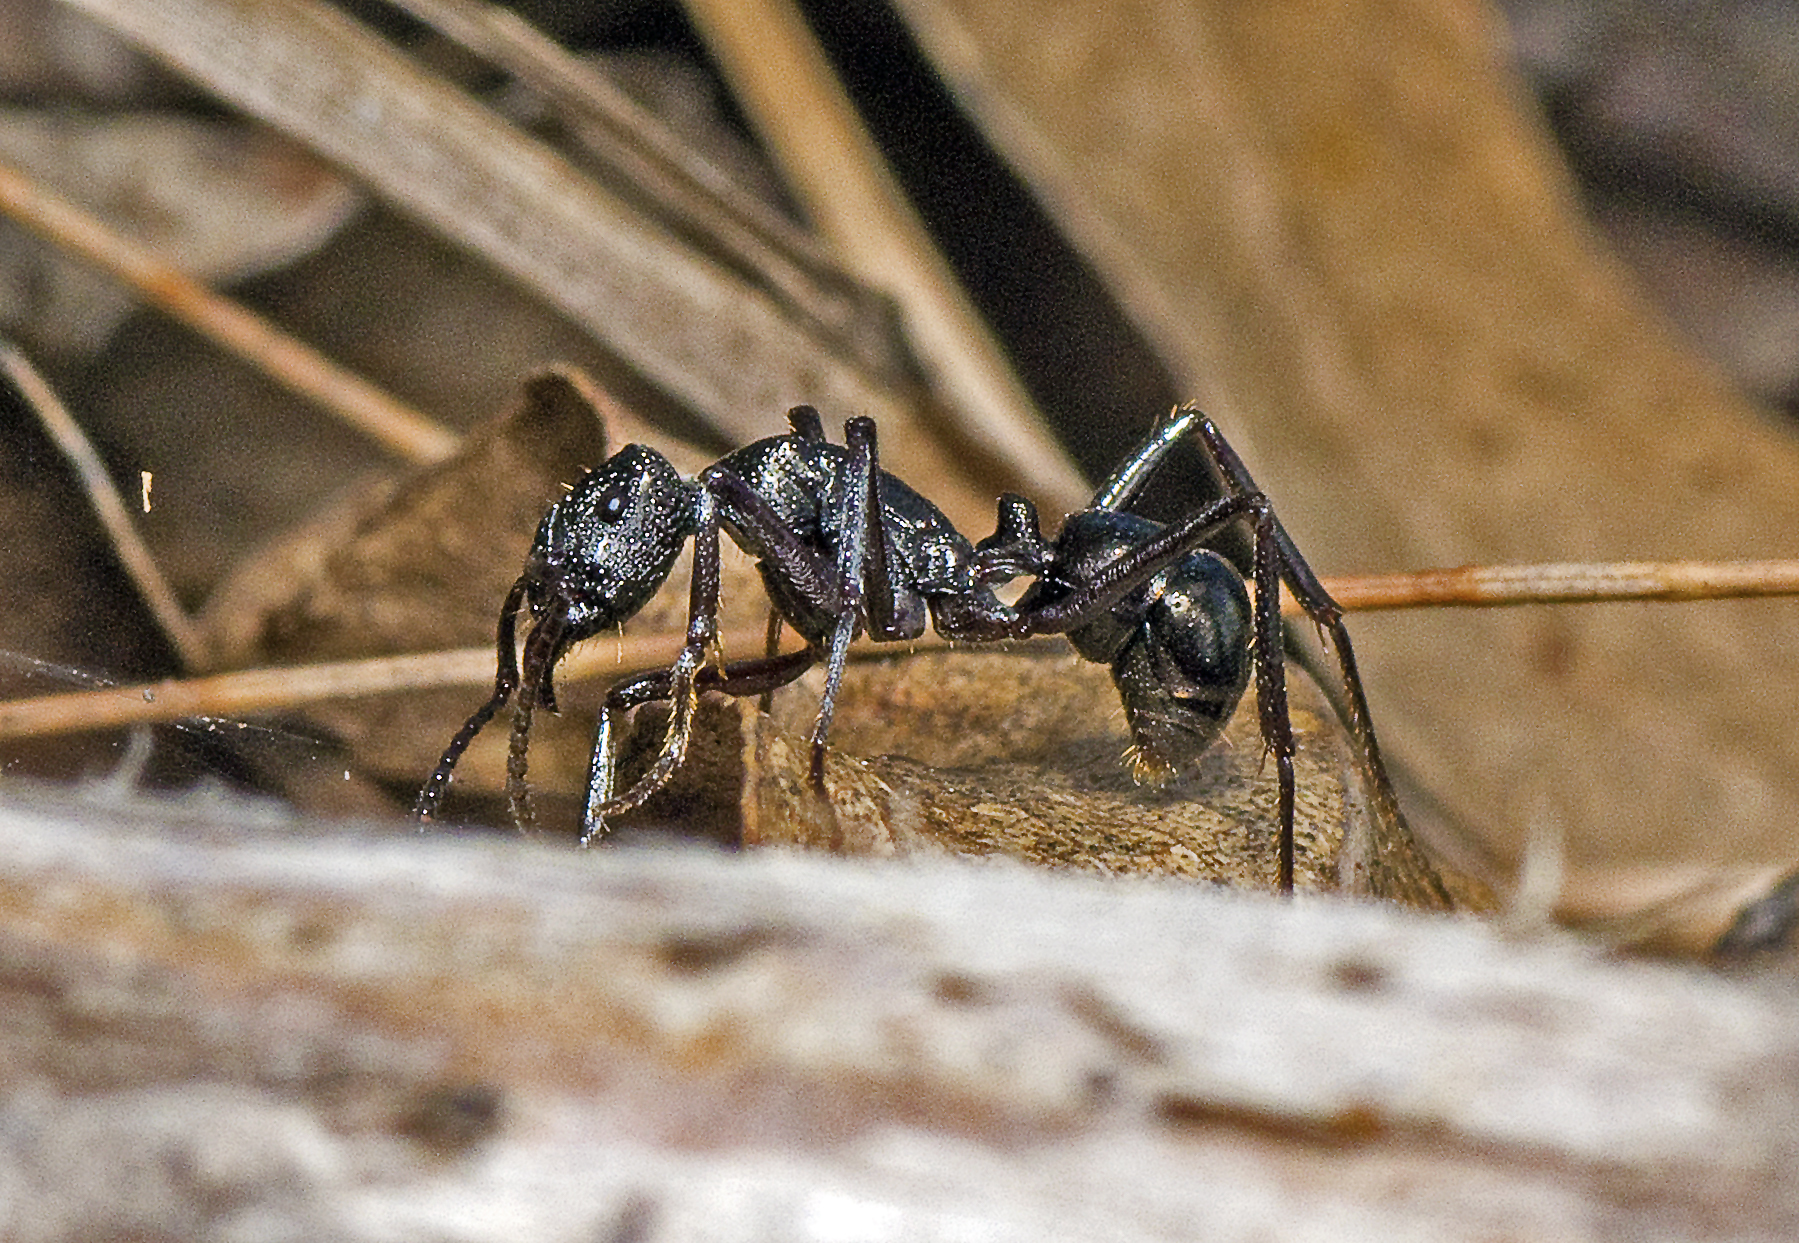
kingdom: Animalia
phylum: Arthropoda
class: Insecta
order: Hymenoptera
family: Formicidae
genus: Rhytidoponera
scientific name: Rhytidoponera nodifera
